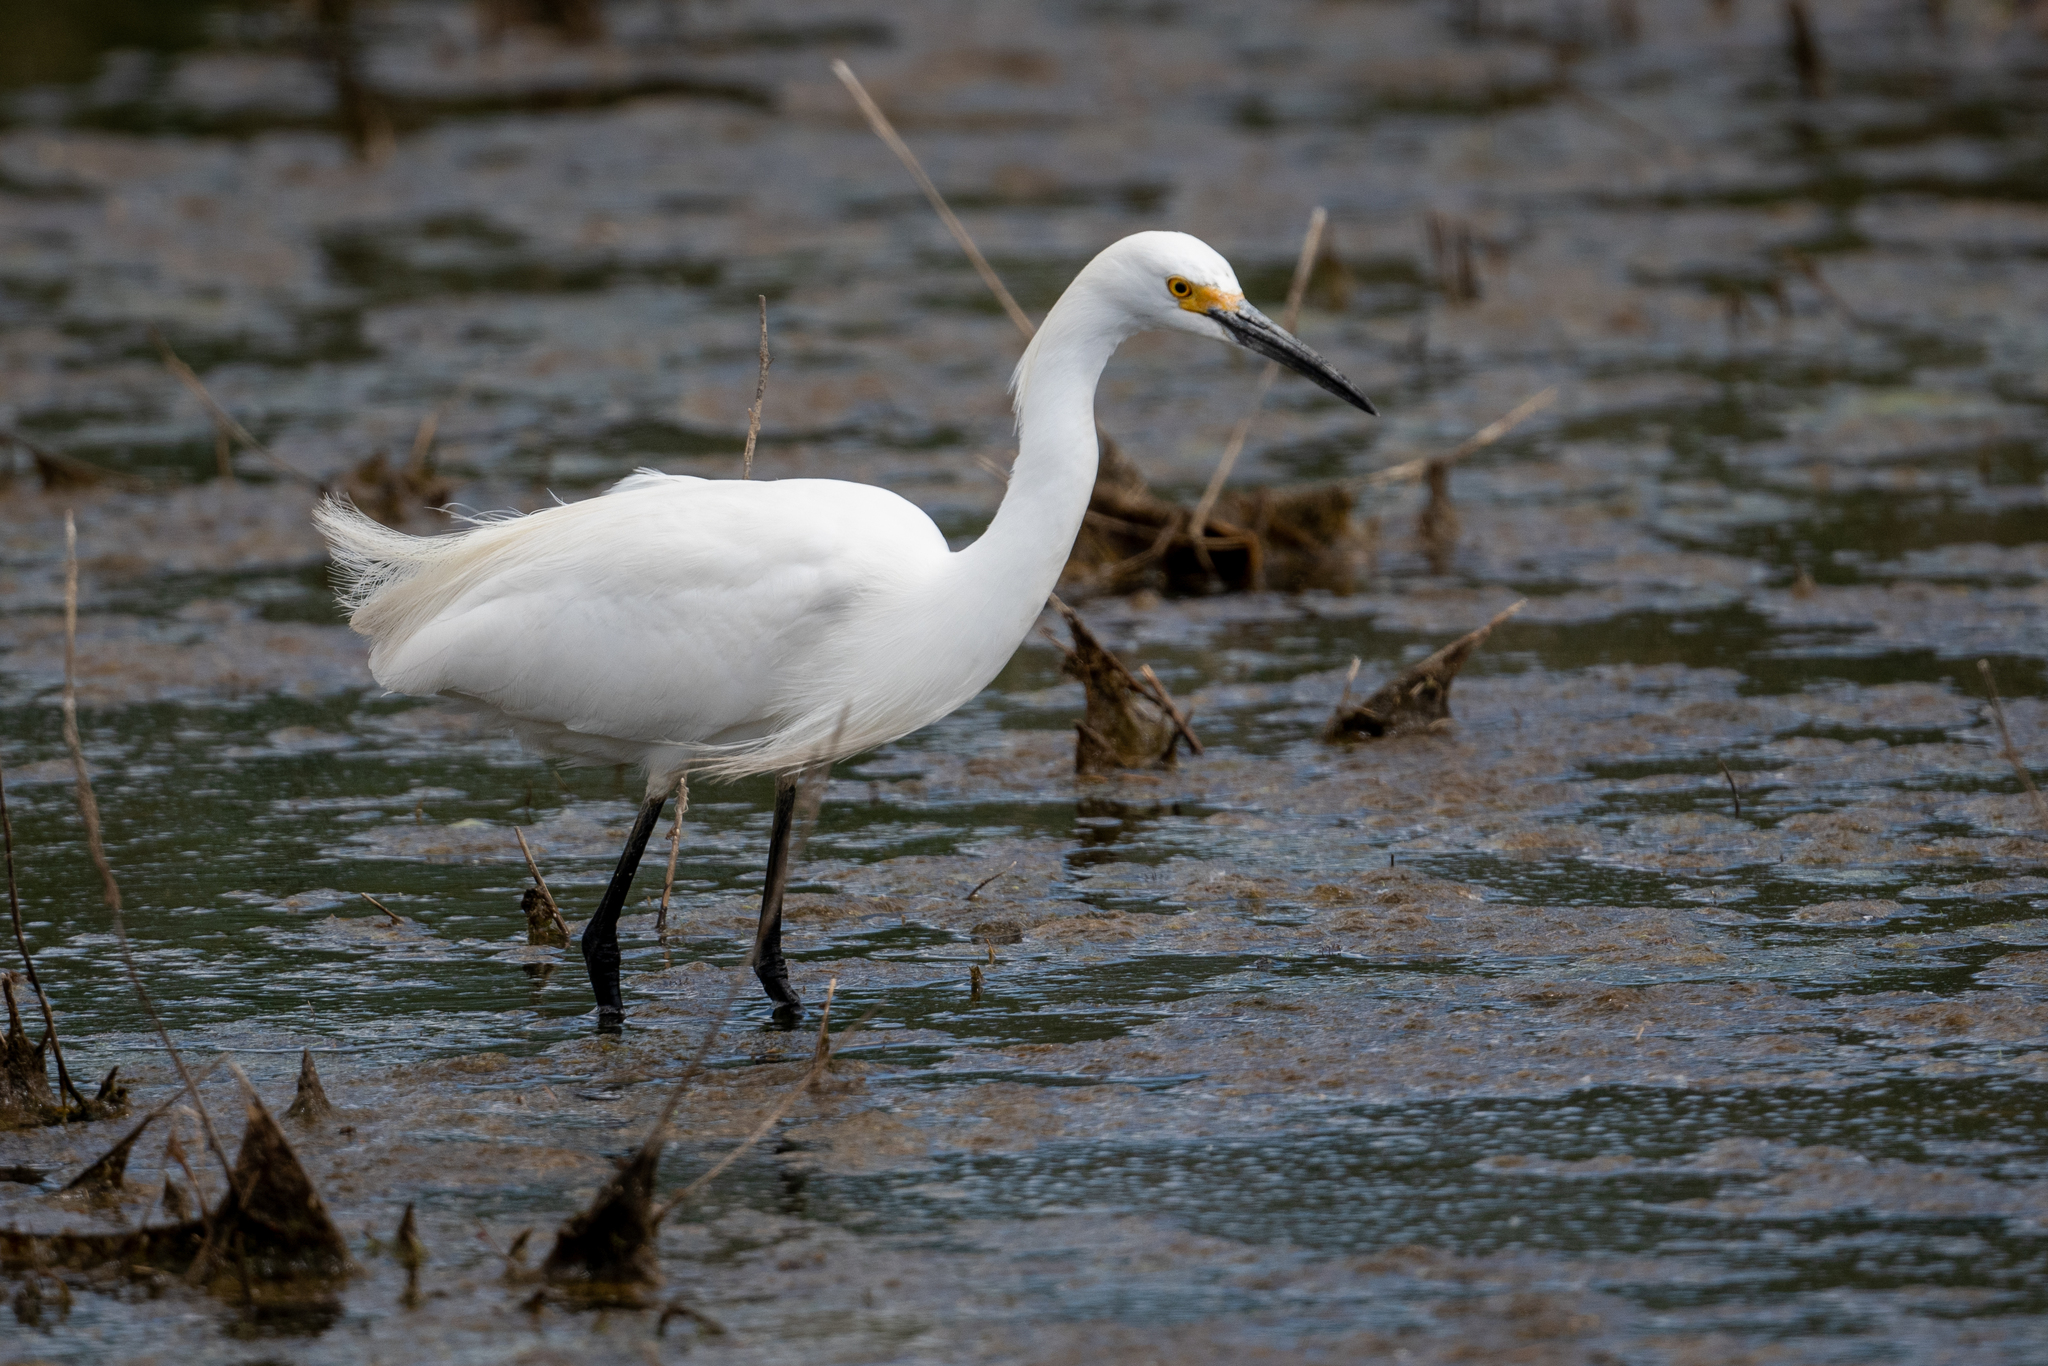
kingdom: Animalia
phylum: Chordata
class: Aves
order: Pelecaniformes
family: Ardeidae
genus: Egretta
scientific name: Egretta thula
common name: Snowy egret
